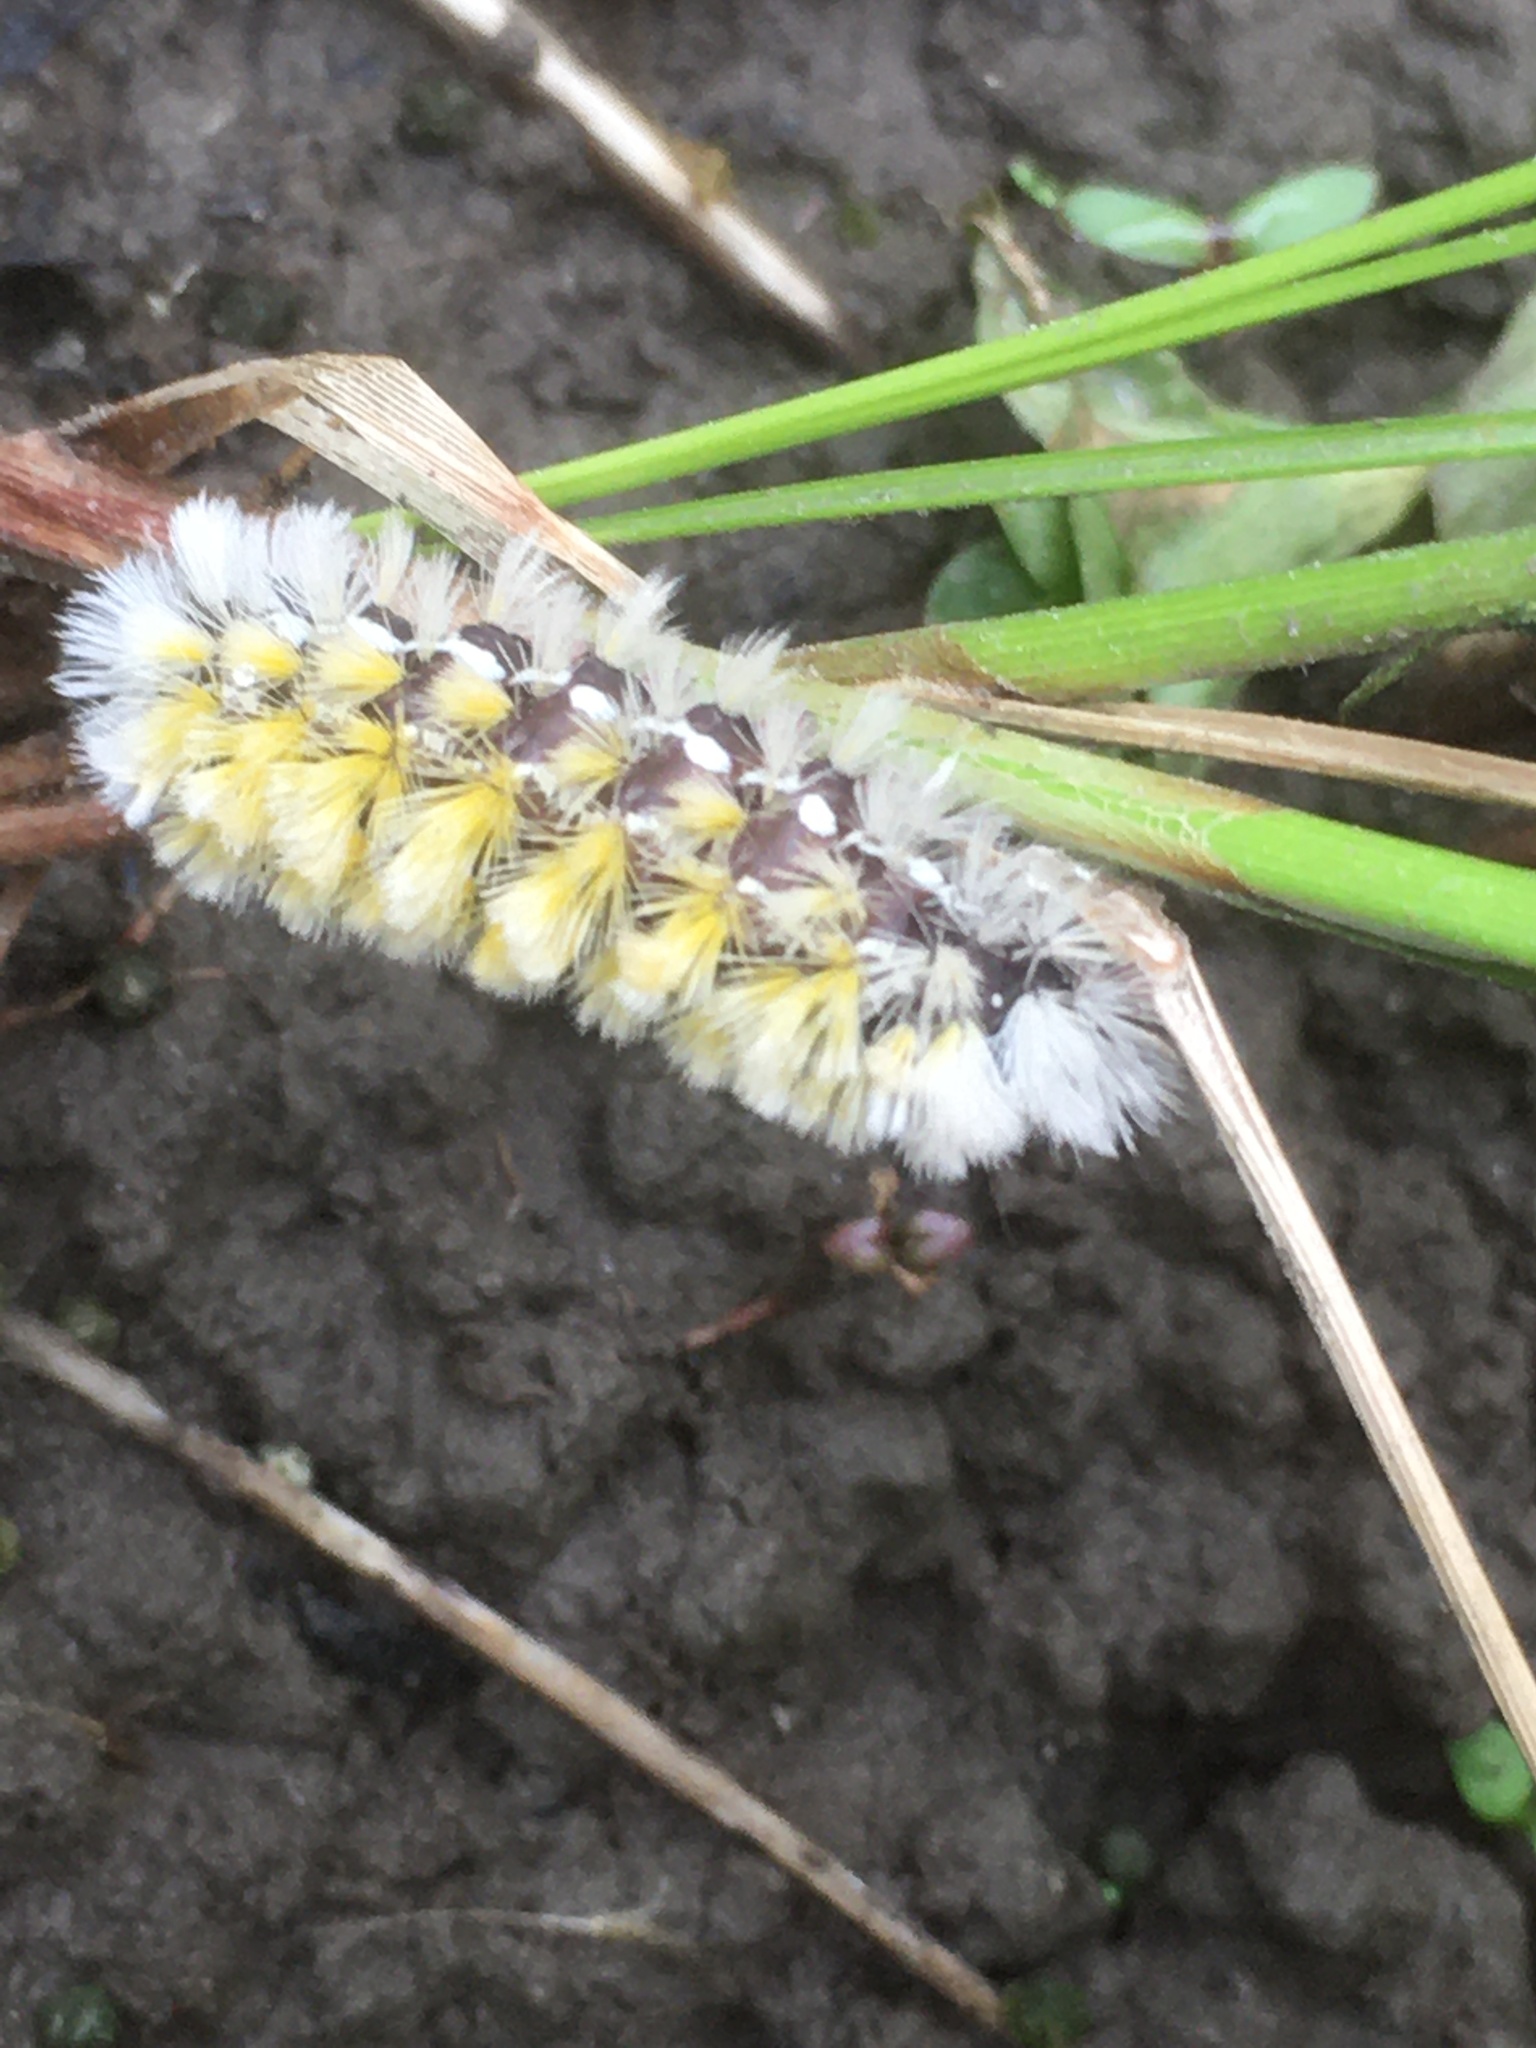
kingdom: Animalia
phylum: Arthropoda
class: Insecta
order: Lepidoptera
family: Erebidae
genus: Ctenucha
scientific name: Ctenucha virginica
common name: Virginia ctenucha moth
